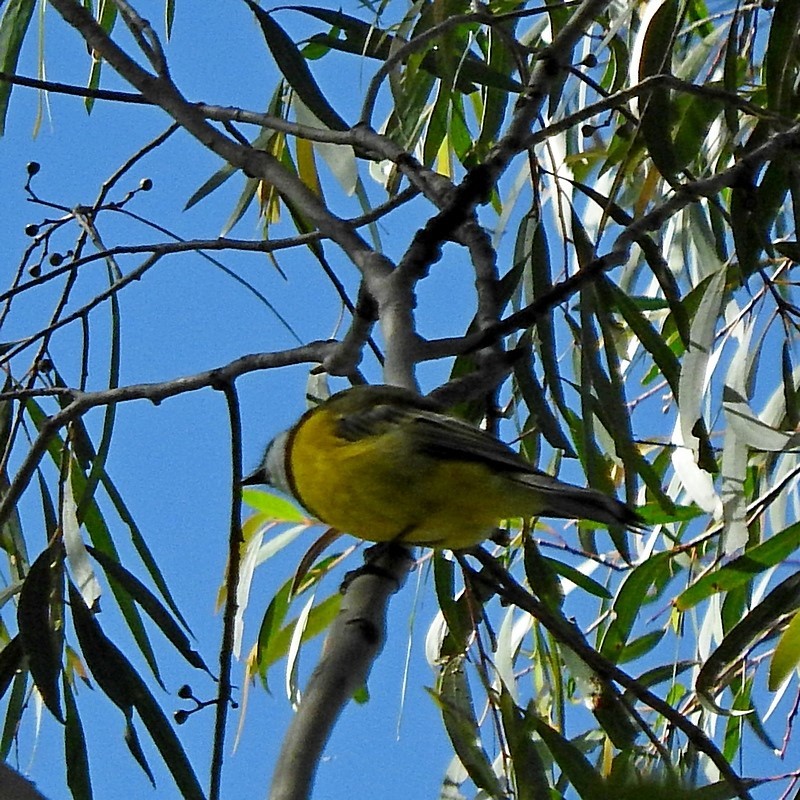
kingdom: Animalia
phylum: Chordata
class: Aves
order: Passeriformes
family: Pachycephalidae
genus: Pachycephala
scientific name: Pachycephala pectoralis
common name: Australian golden whistler
